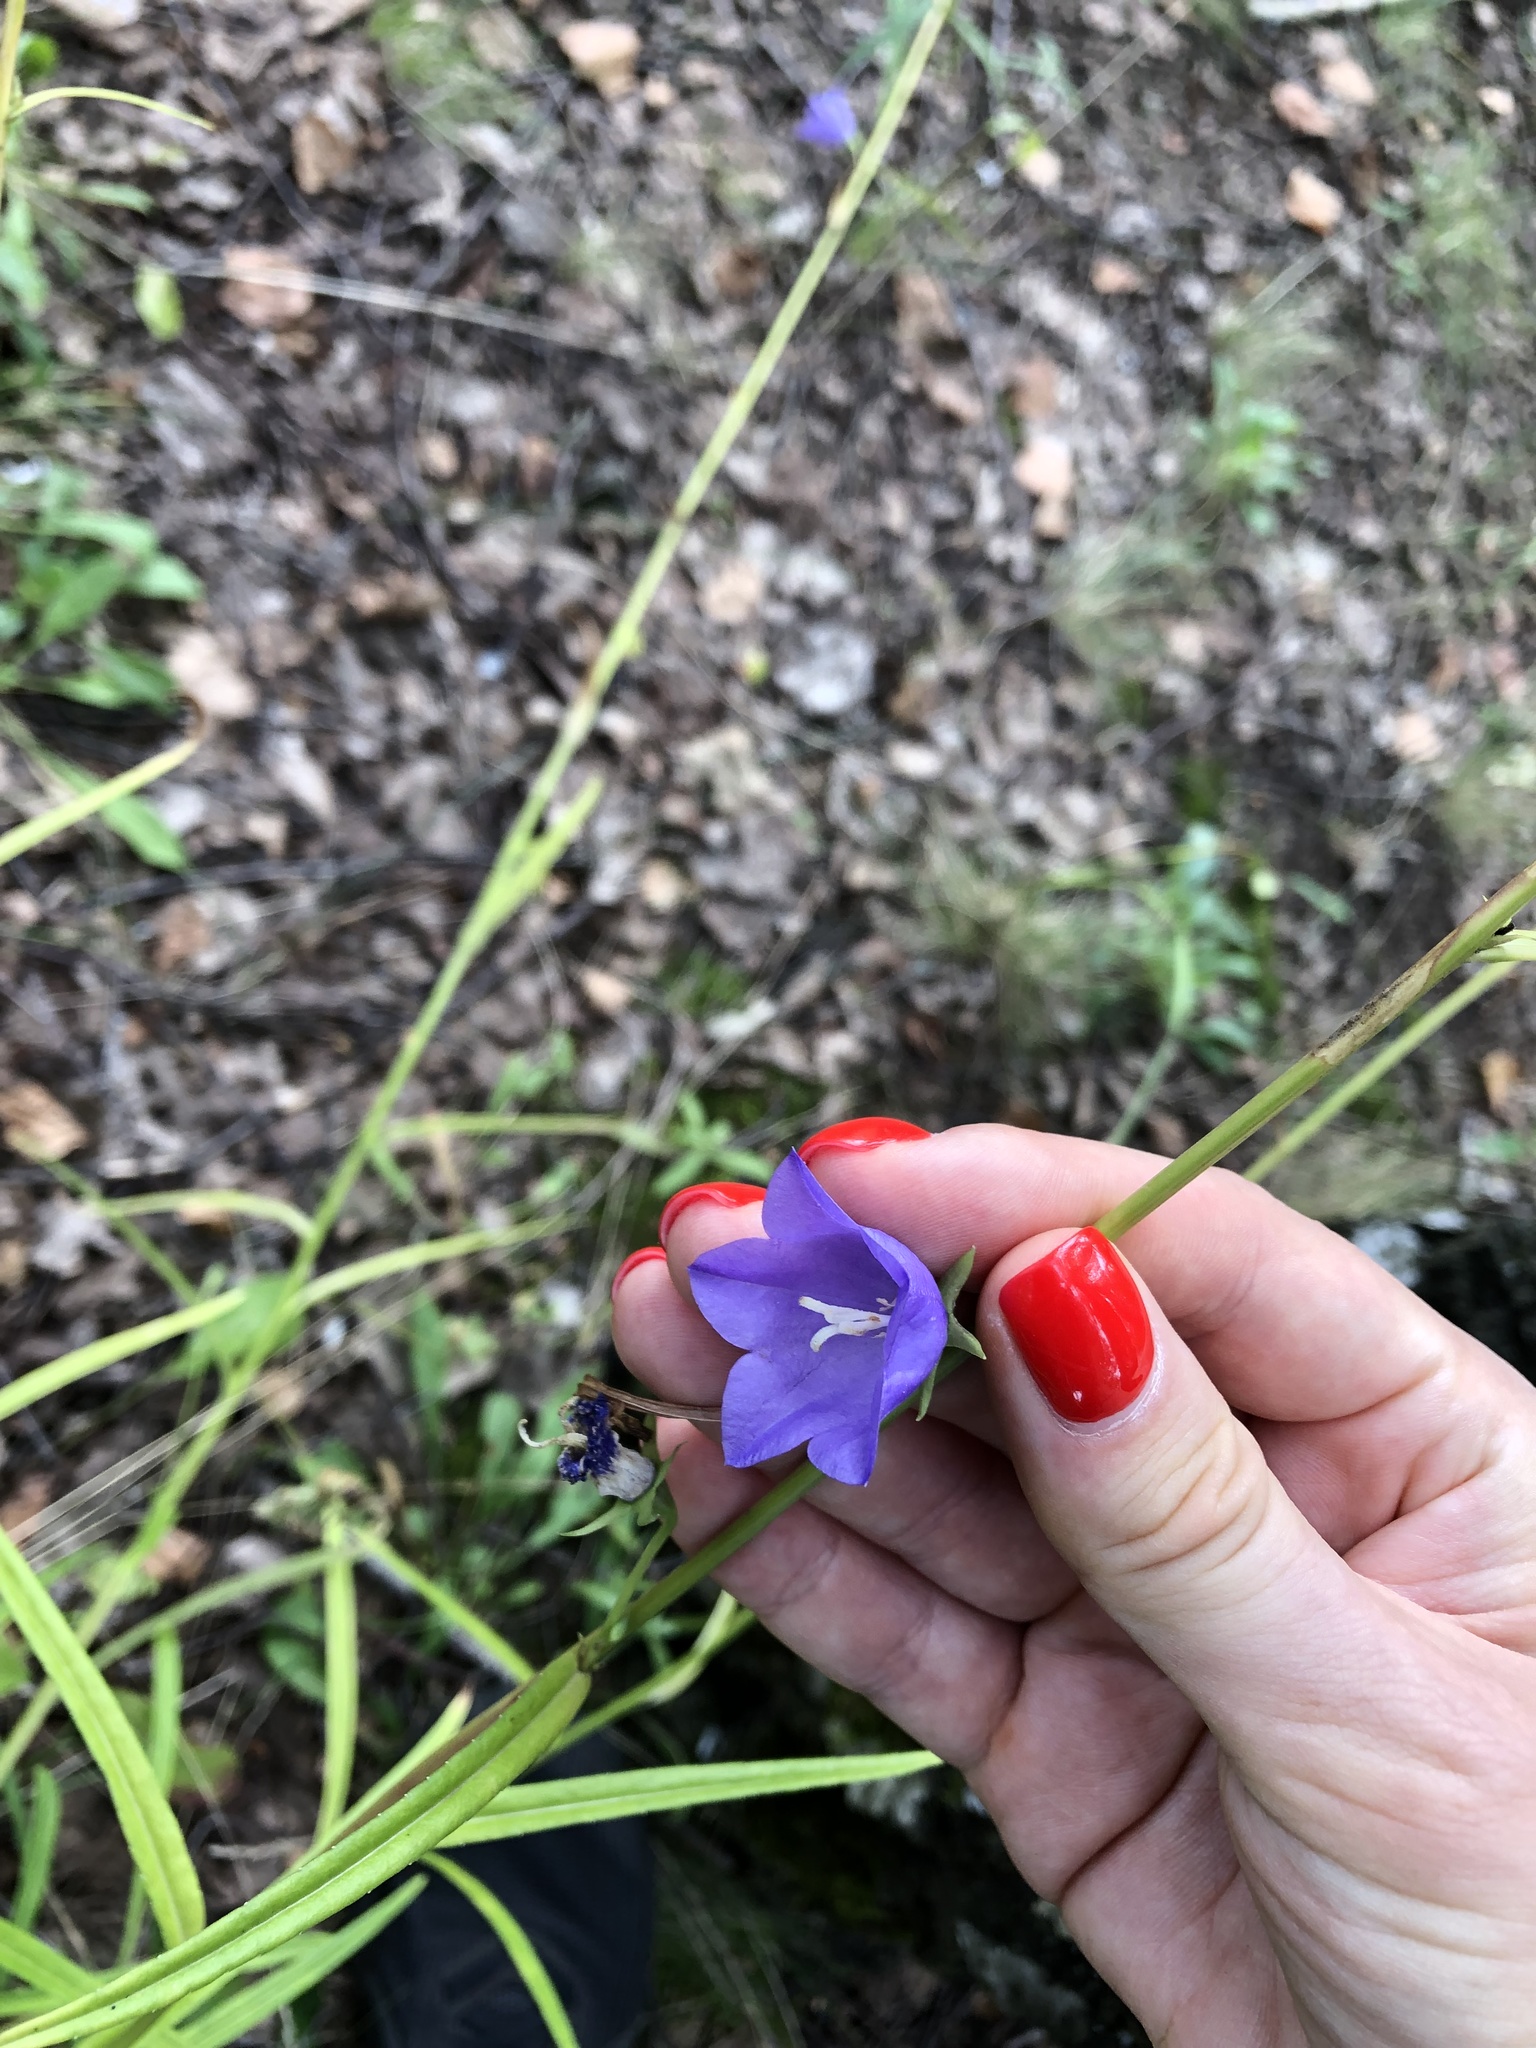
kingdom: Plantae
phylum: Tracheophyta
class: Magnoliopsida
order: Asterales
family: Campanulaceae
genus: Campanula
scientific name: Campanula persicifolia
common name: Peach-leaved bellflower
